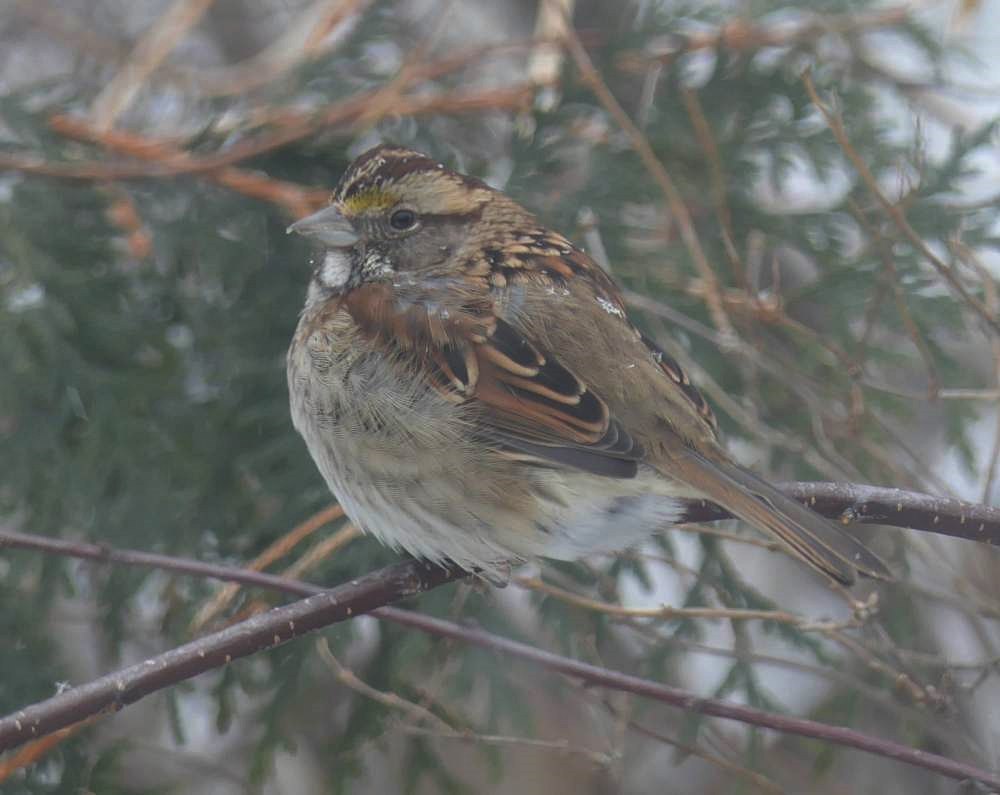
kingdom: Animalia
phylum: Chordata
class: Aves
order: Passeriformes
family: Passerellidae
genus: Zonotrichia
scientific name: Zonotrichia albicollis
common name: White-throated sparrow
